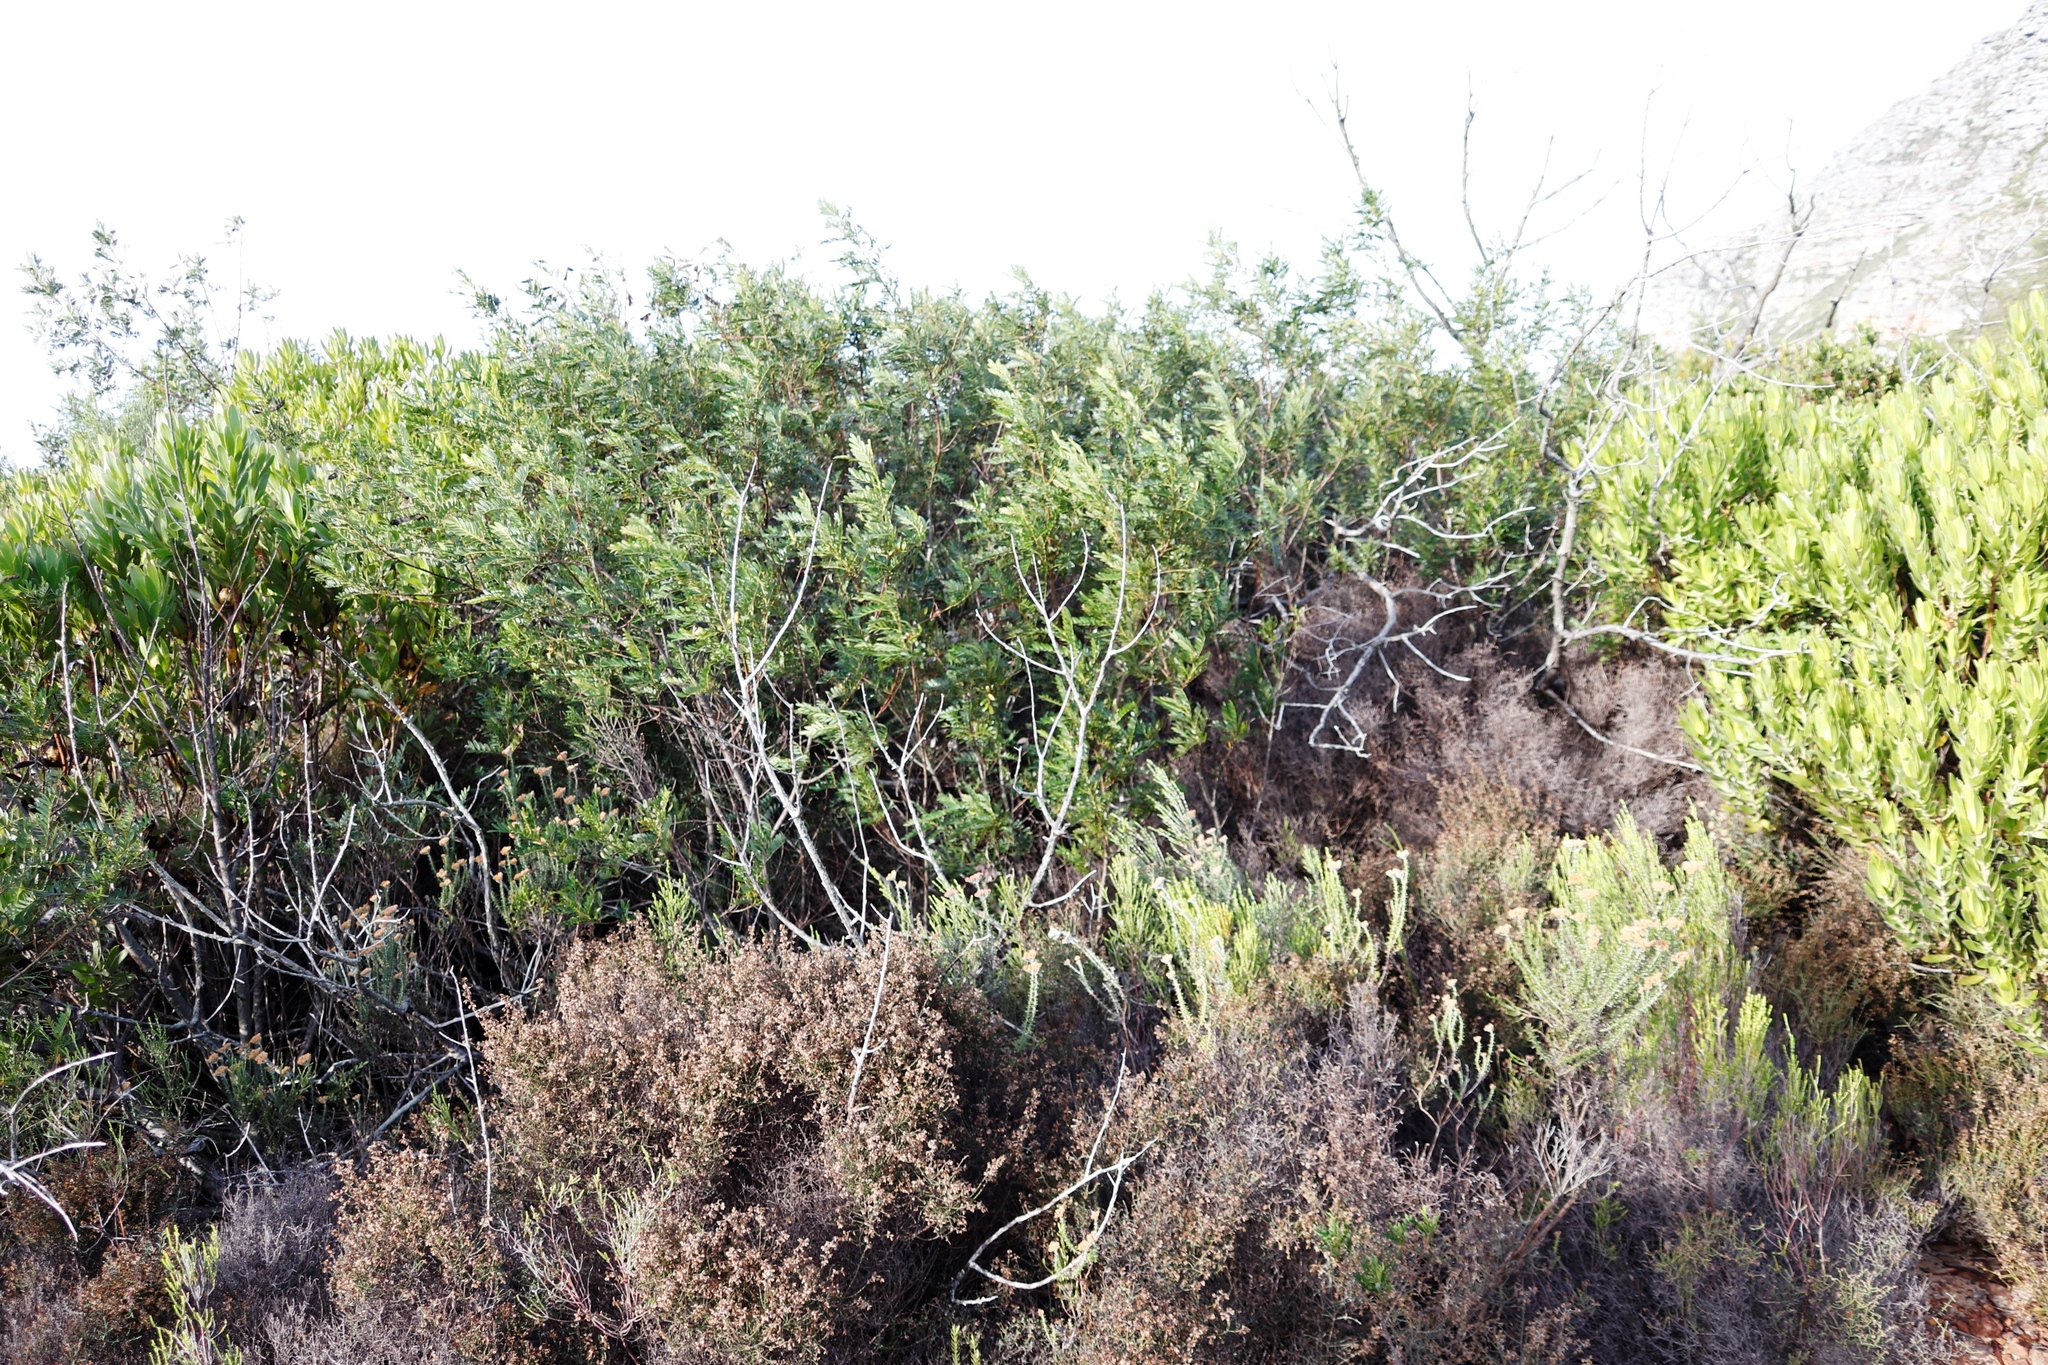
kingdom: Plantae
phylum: Tracheophyta
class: Magnoliopsida
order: Fabales
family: Fabaceae
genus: Virgilia
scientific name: Virgilia oroboides
